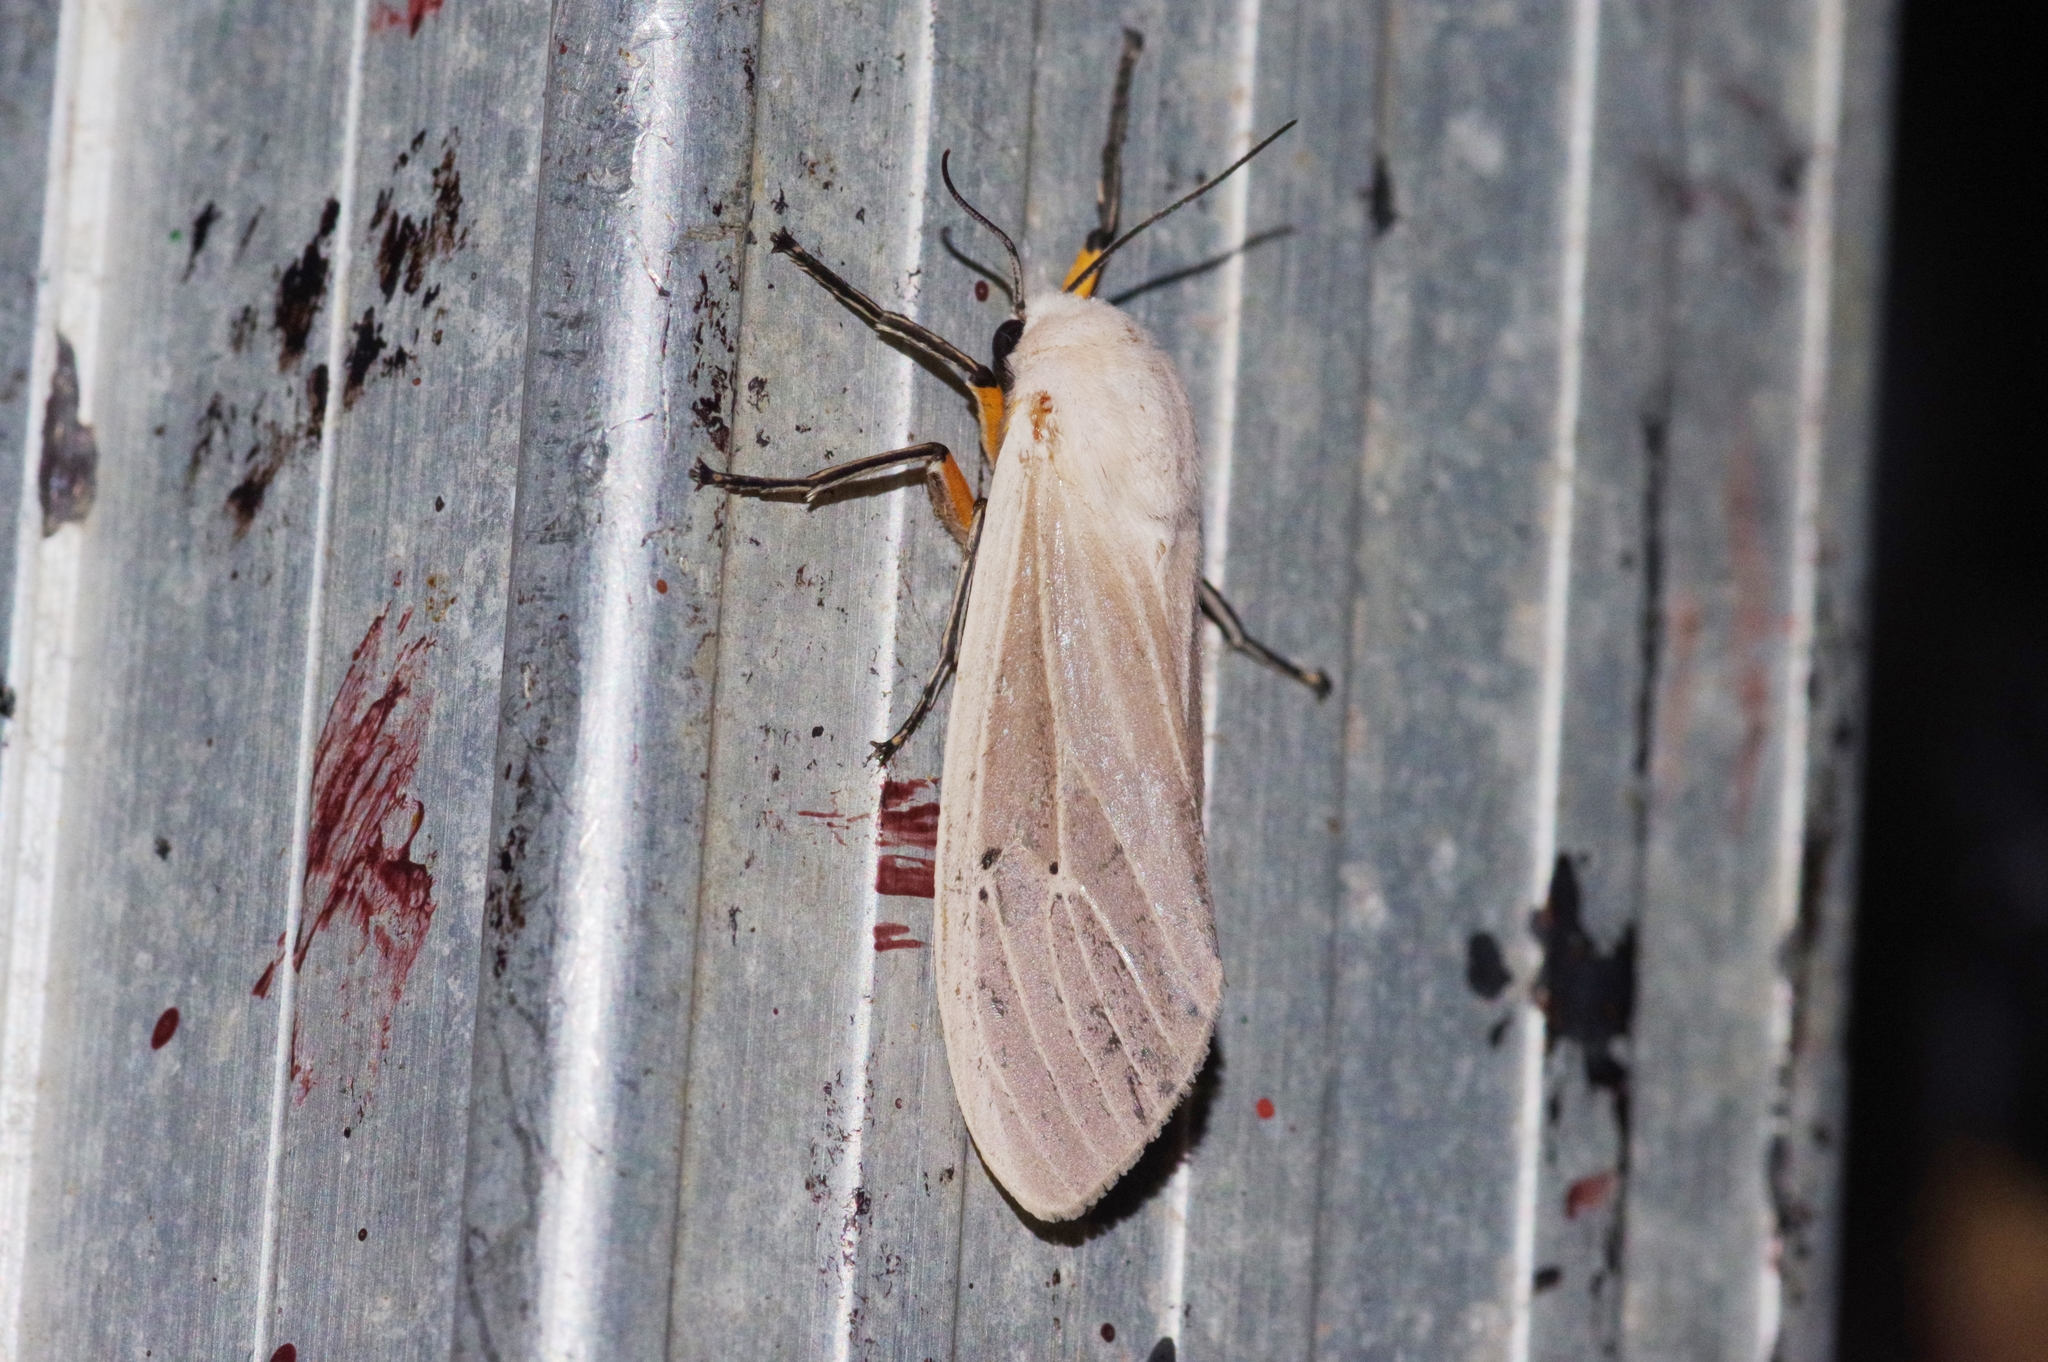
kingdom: Animalia
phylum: Arthropoda
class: Insecta
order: Lepidoptera
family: Erebidae
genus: Creatonotos
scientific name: Creatonotos transiens
